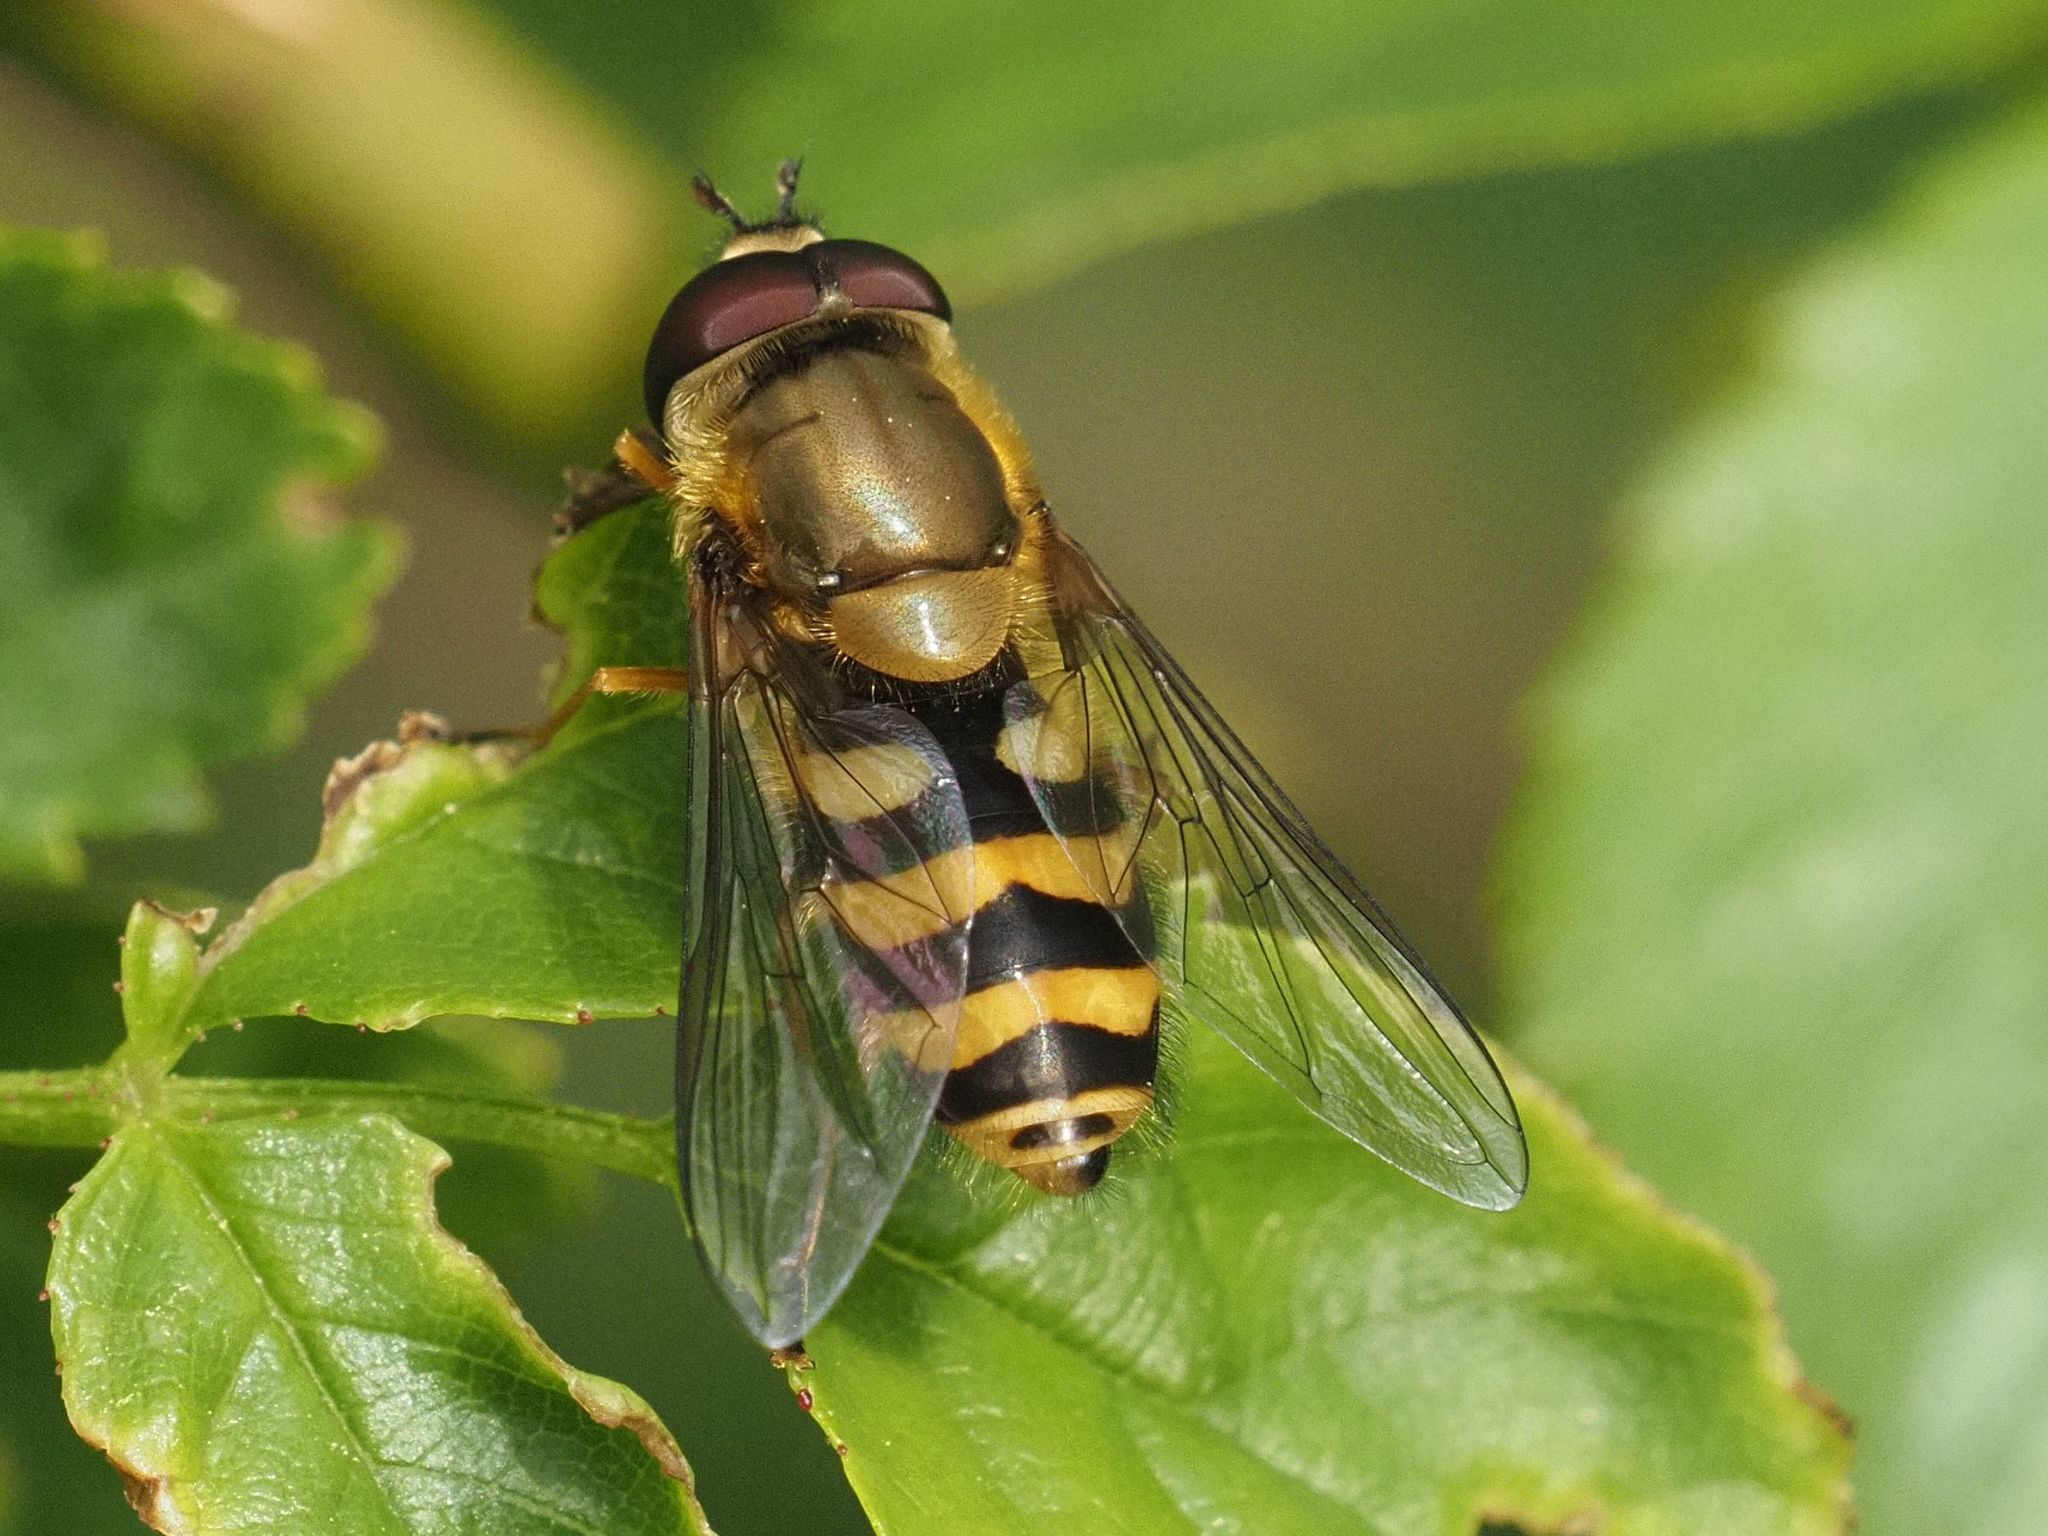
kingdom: Animalia
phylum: Arthropoda
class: Insecta
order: Diptera
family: Syrphidae
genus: Syrphus
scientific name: Syrphus
